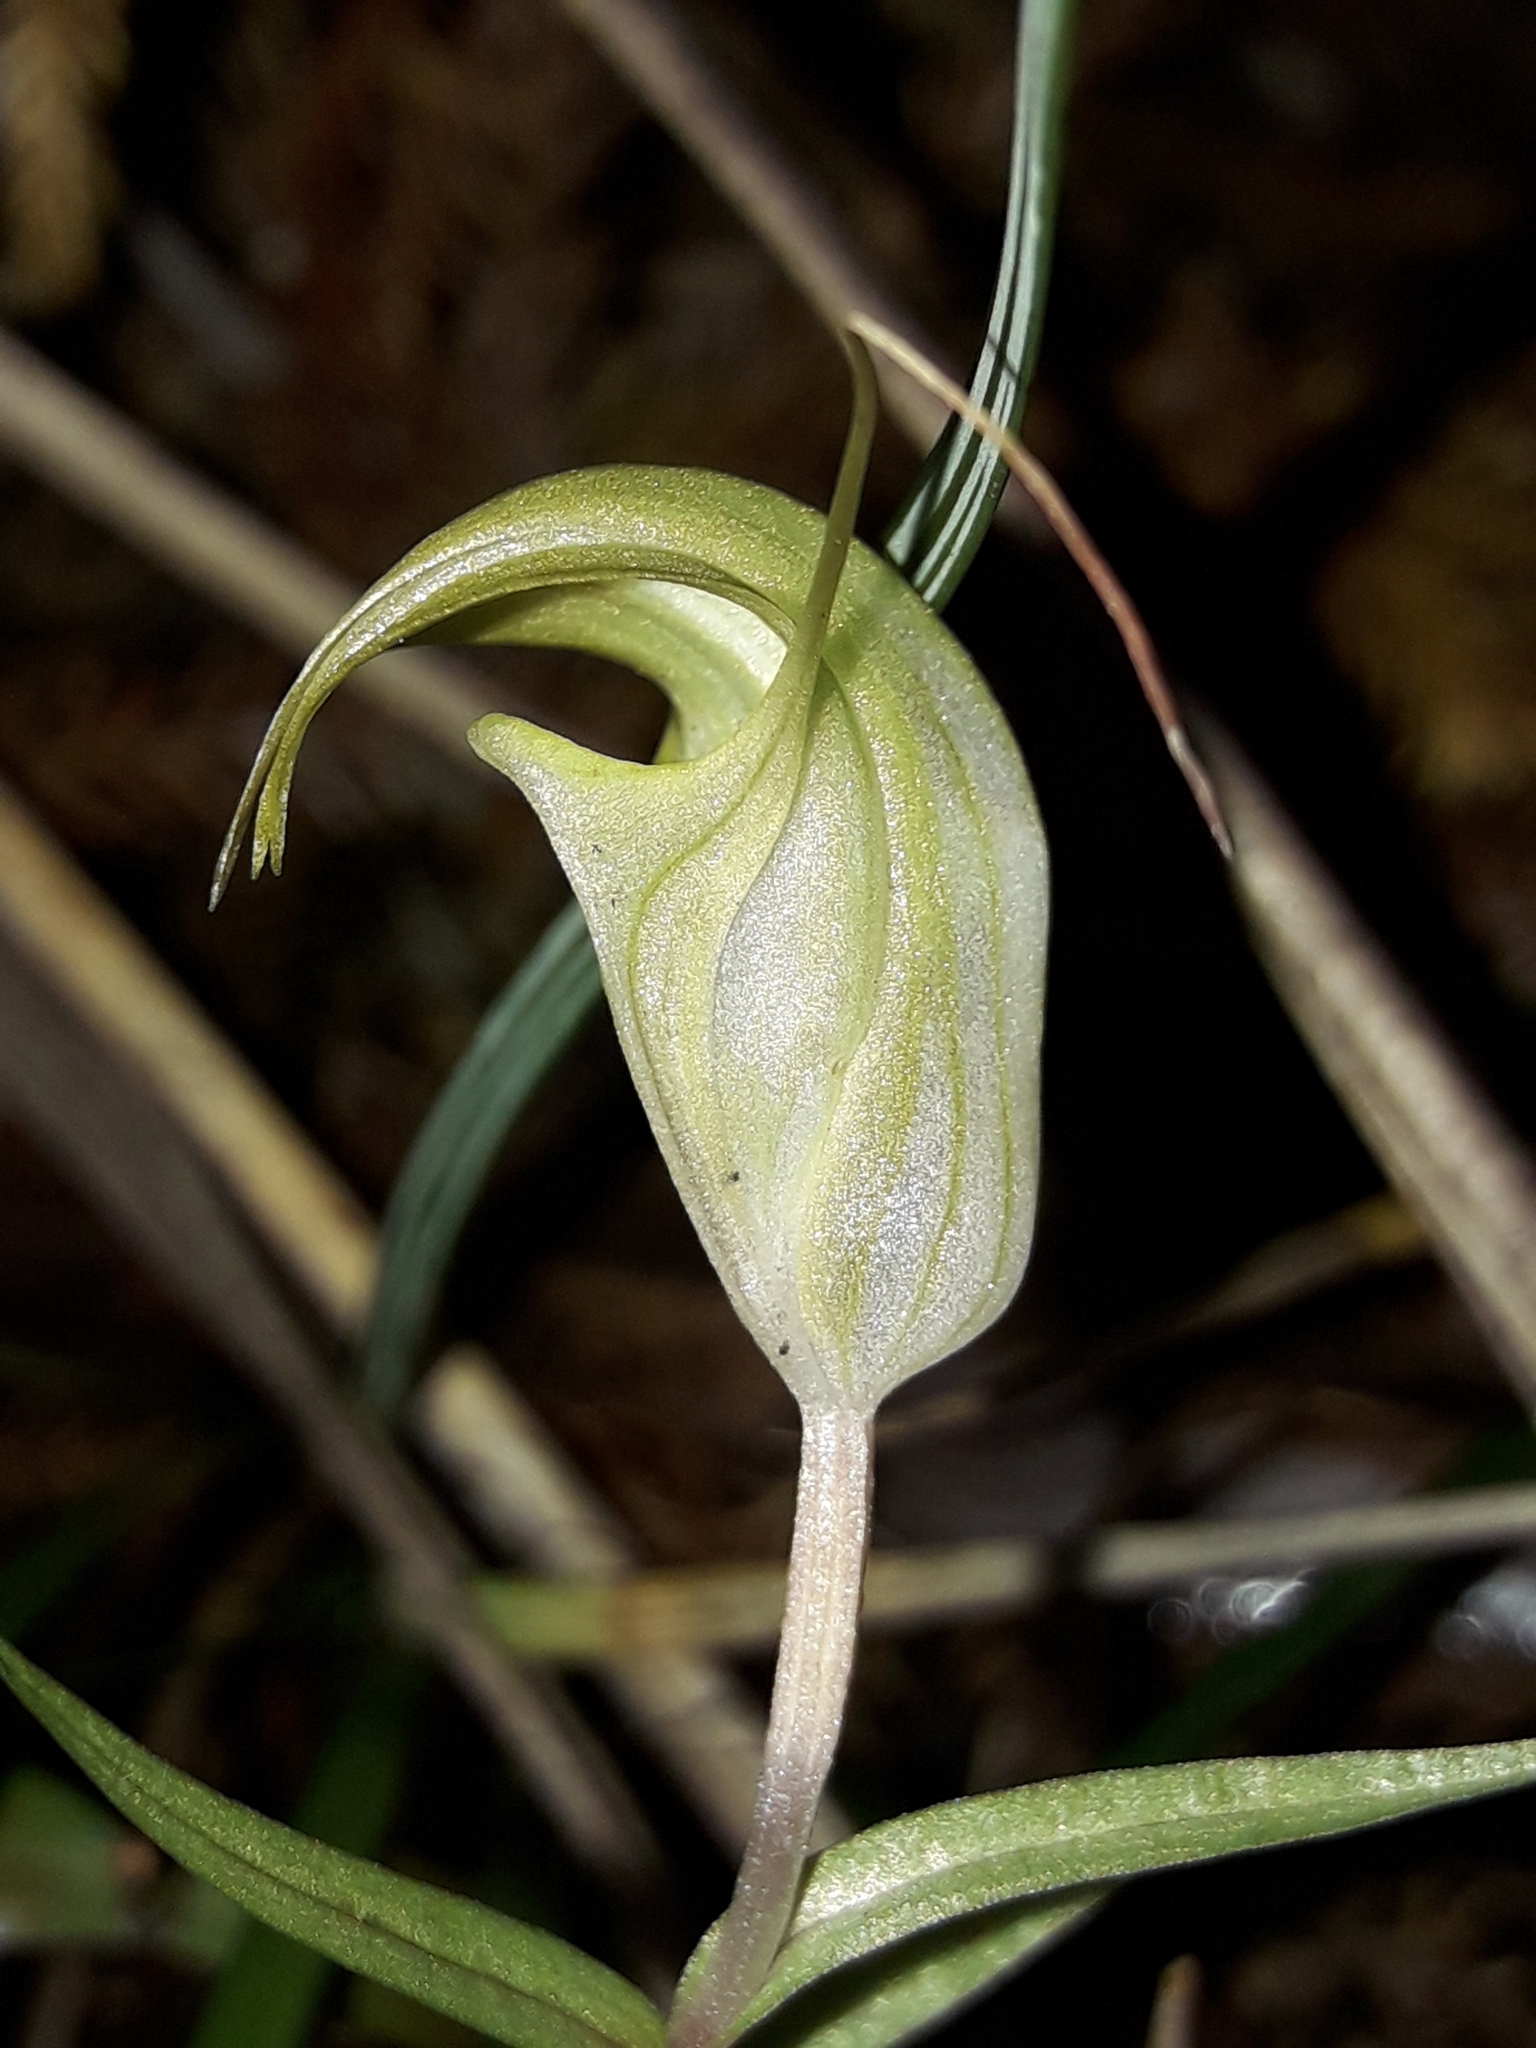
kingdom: Plantae
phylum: Tracheophyta
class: Liliopsida
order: Asparagales
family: Orchidaceae
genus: Pterostylis
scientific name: Pterostylis brumalis
